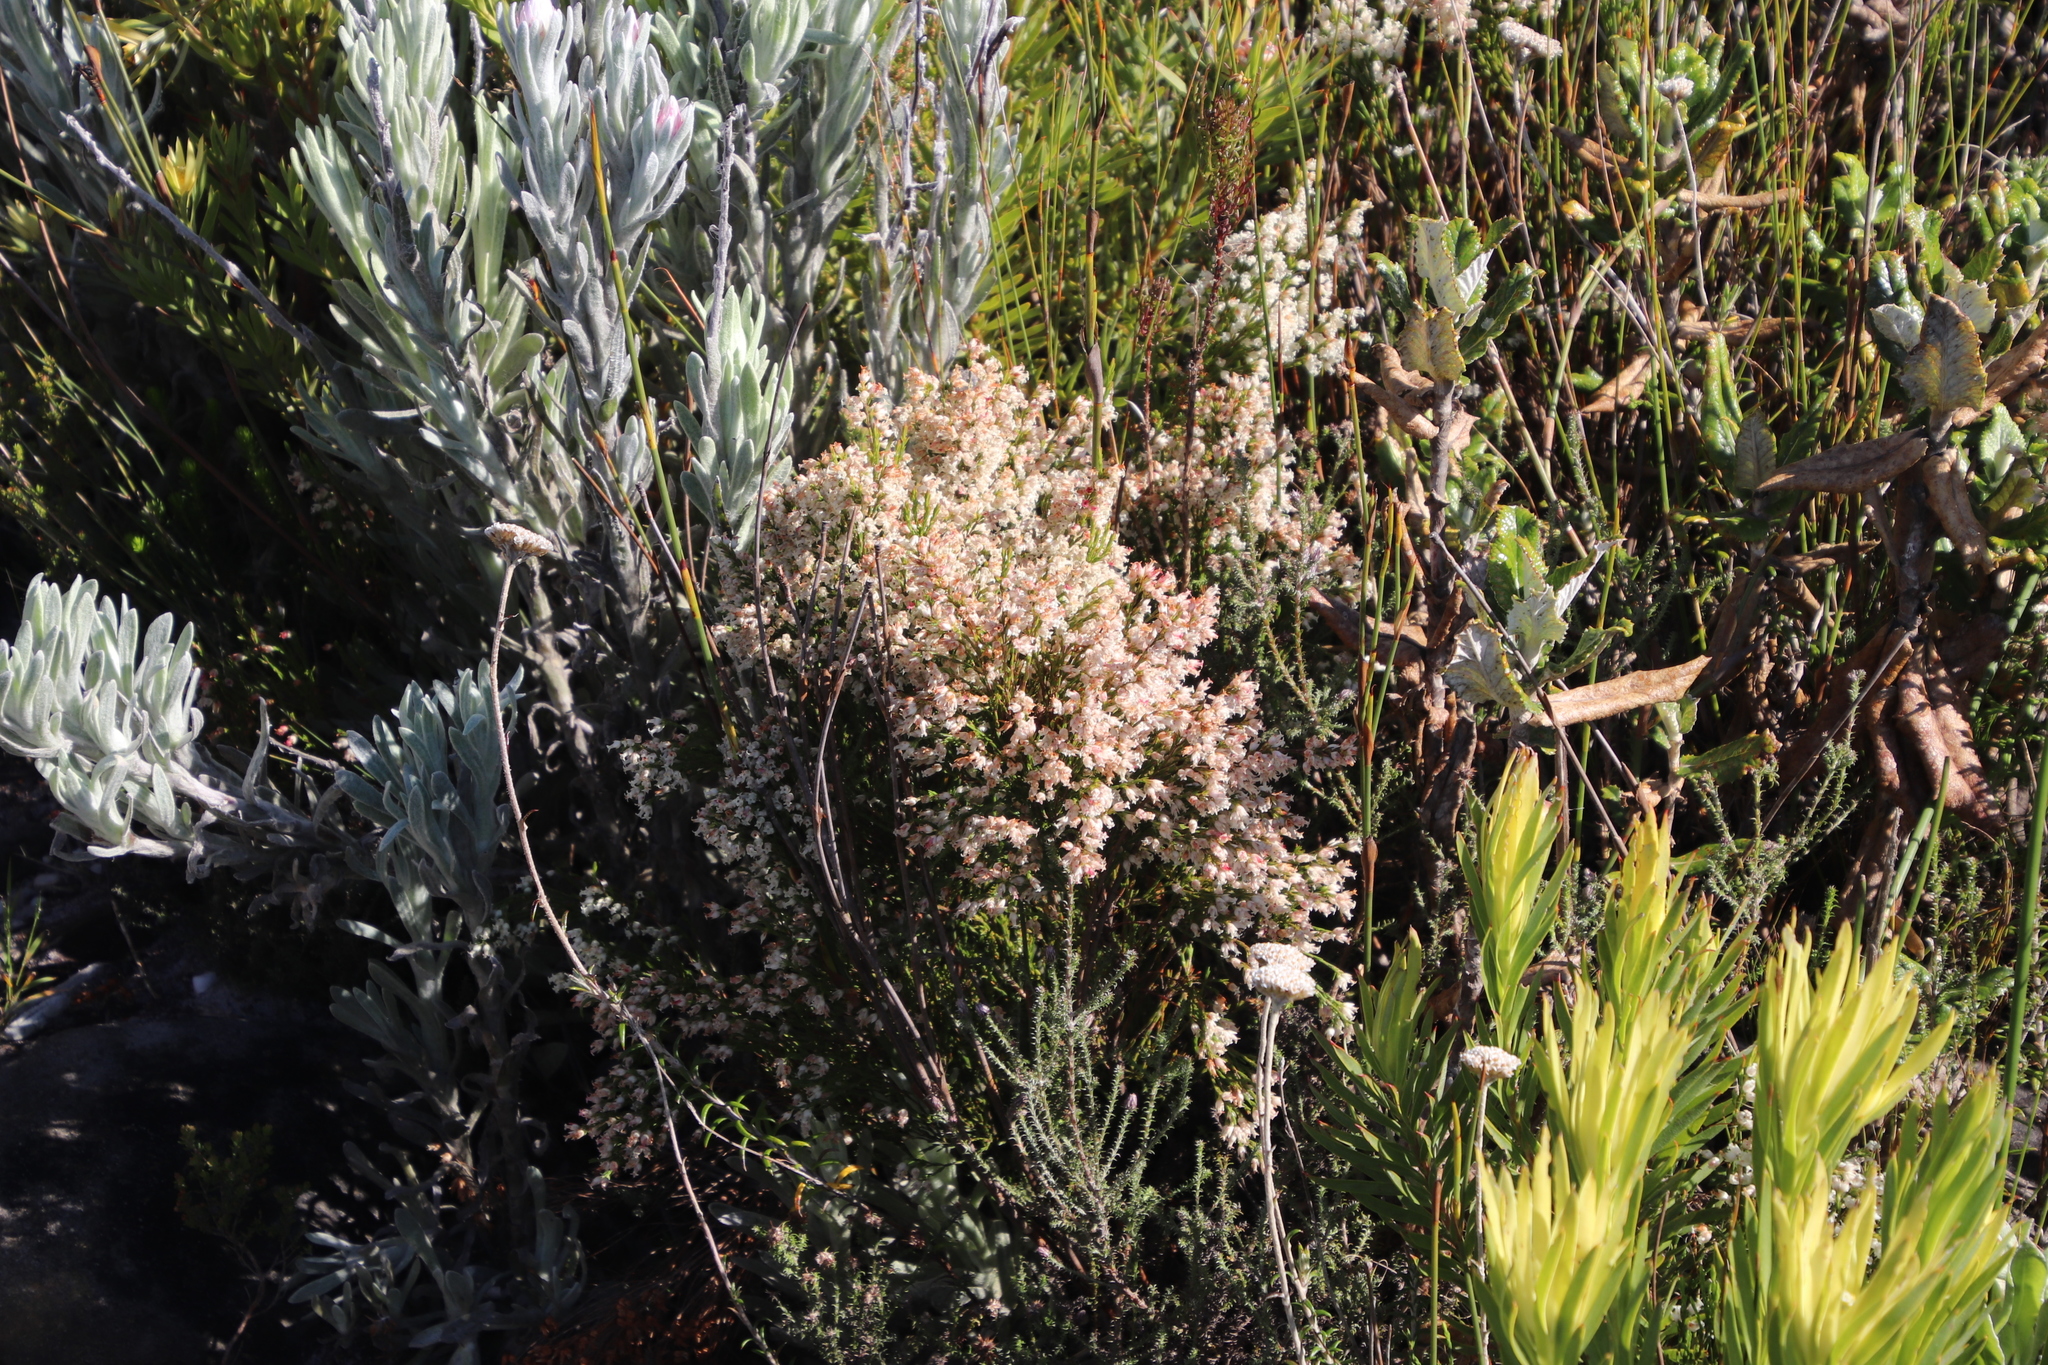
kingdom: Plantae
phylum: Tracheophyta
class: Magnoliopsida
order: Ericales
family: Ericaceae
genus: Erica
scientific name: Erica lutea
